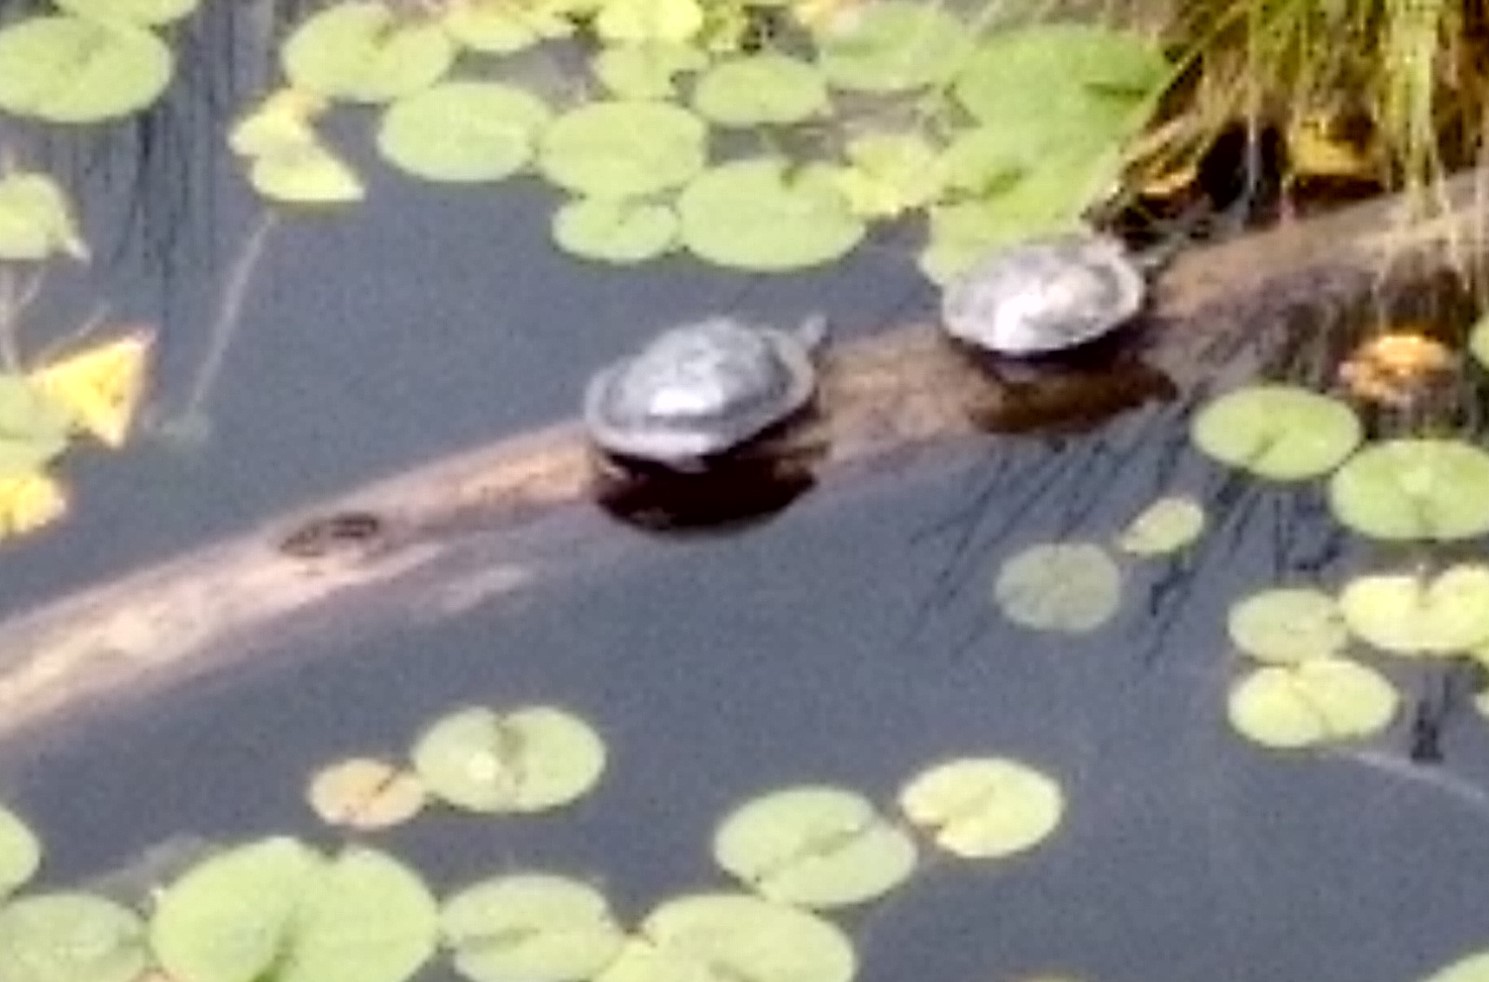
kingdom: Animalia
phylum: Chordata
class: Testudines
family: Emydidae
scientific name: Emydidae
